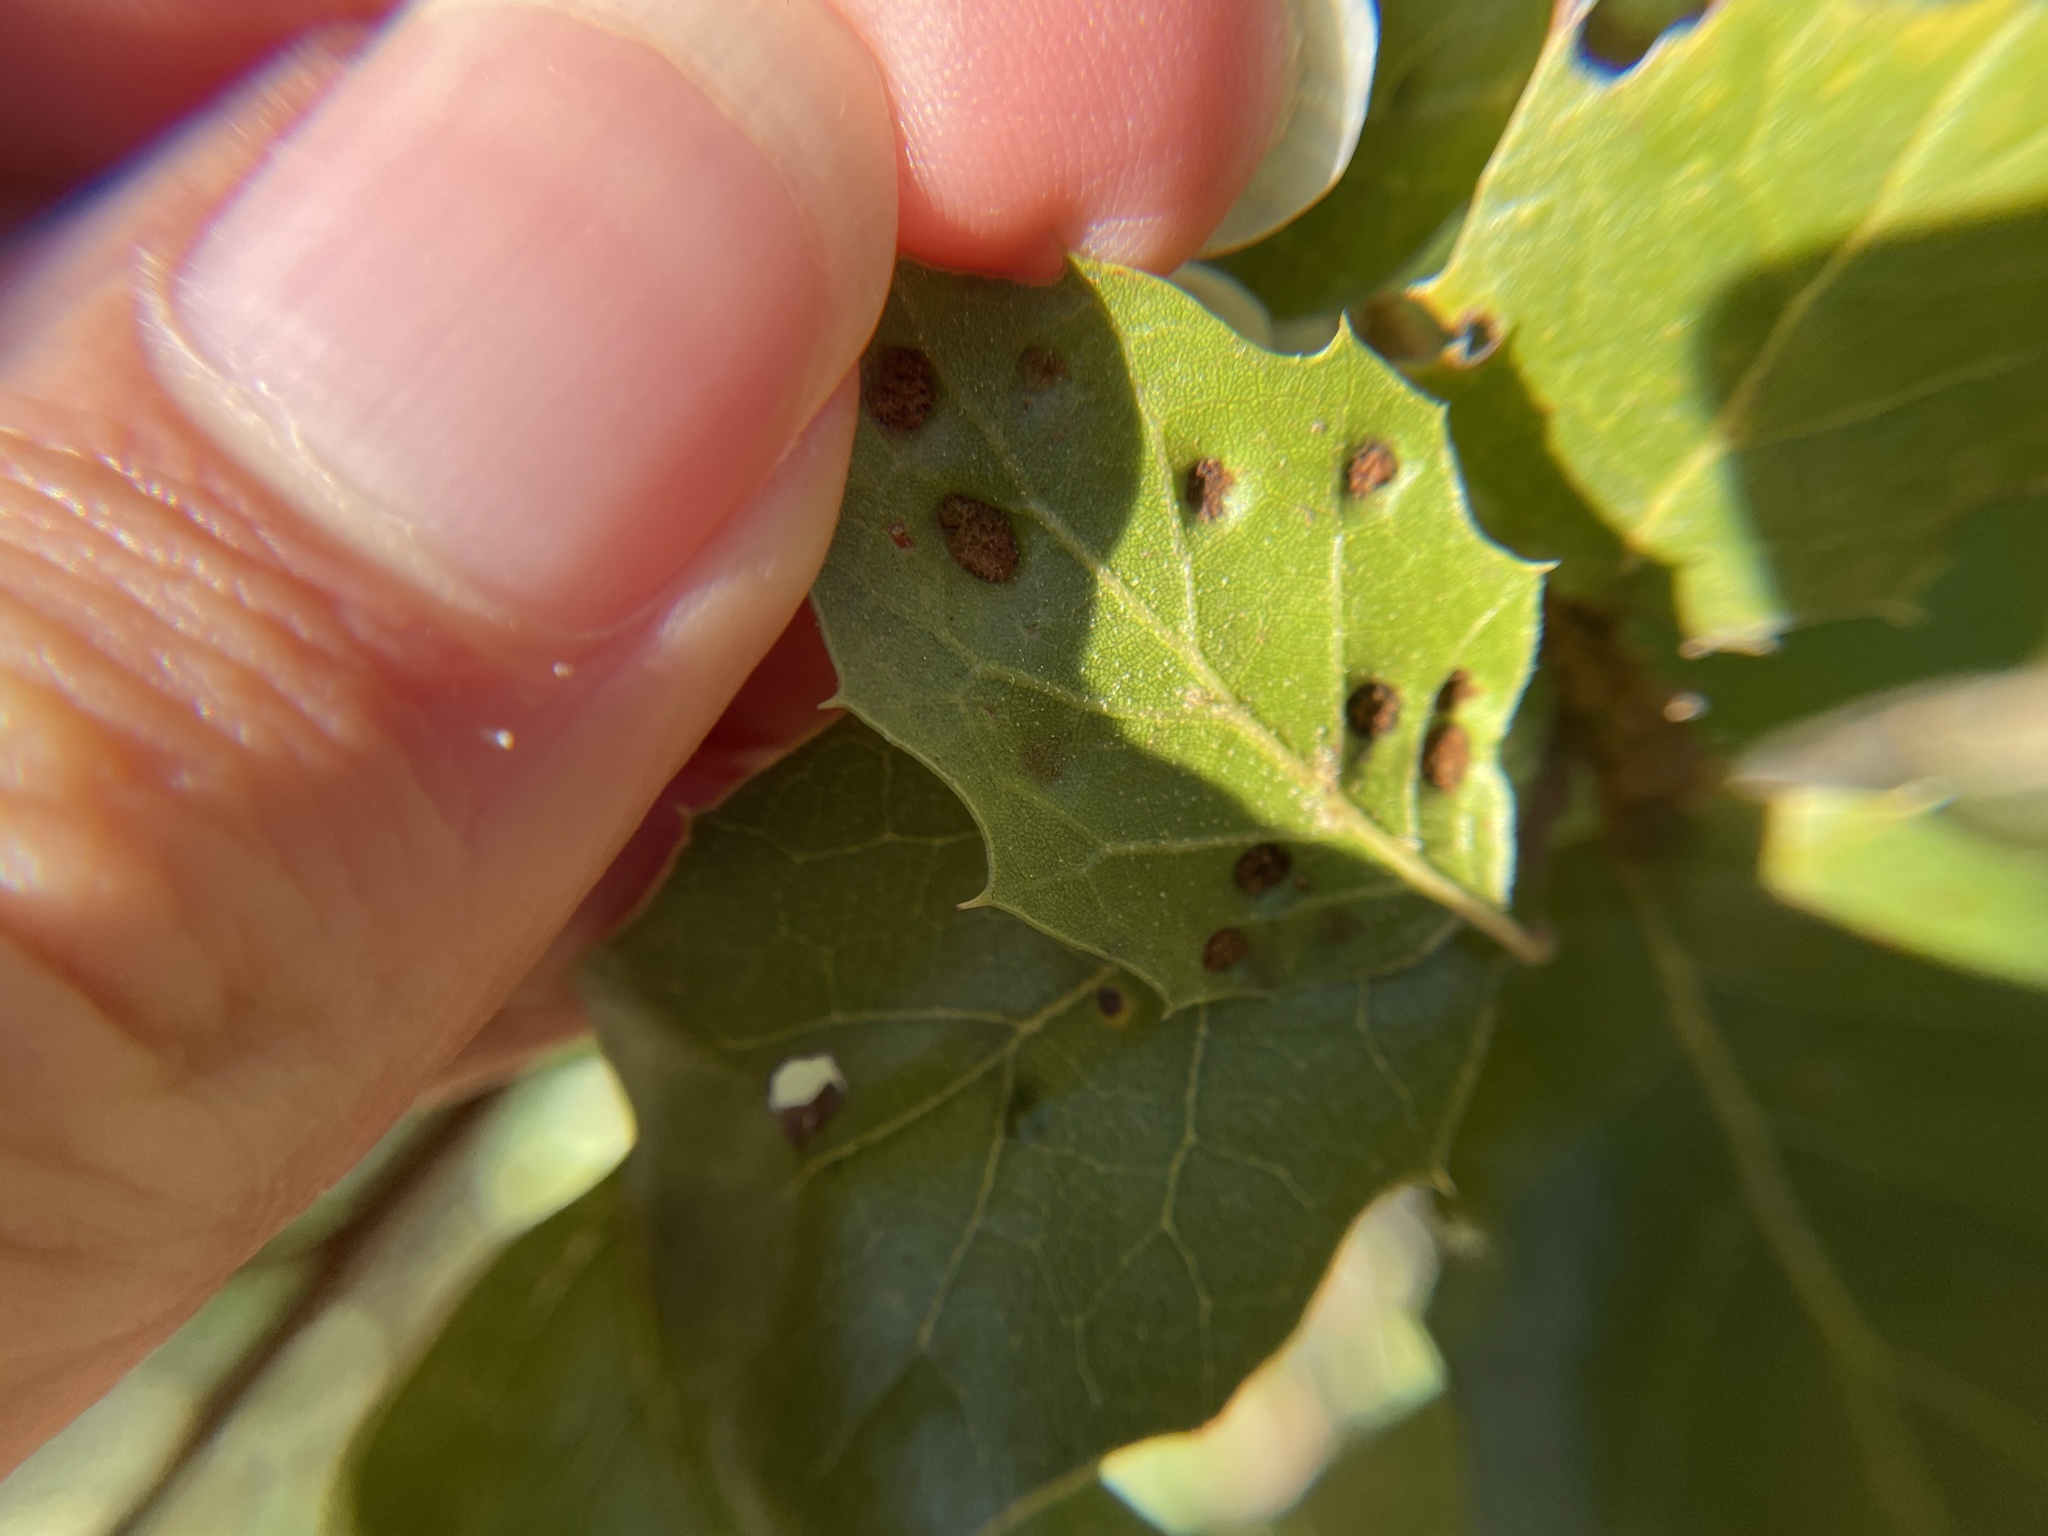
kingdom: Animalia
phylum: Arthropoda
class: Arachnida
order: Trombidiformes
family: Eriophyidae
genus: Aceria
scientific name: Aceria
